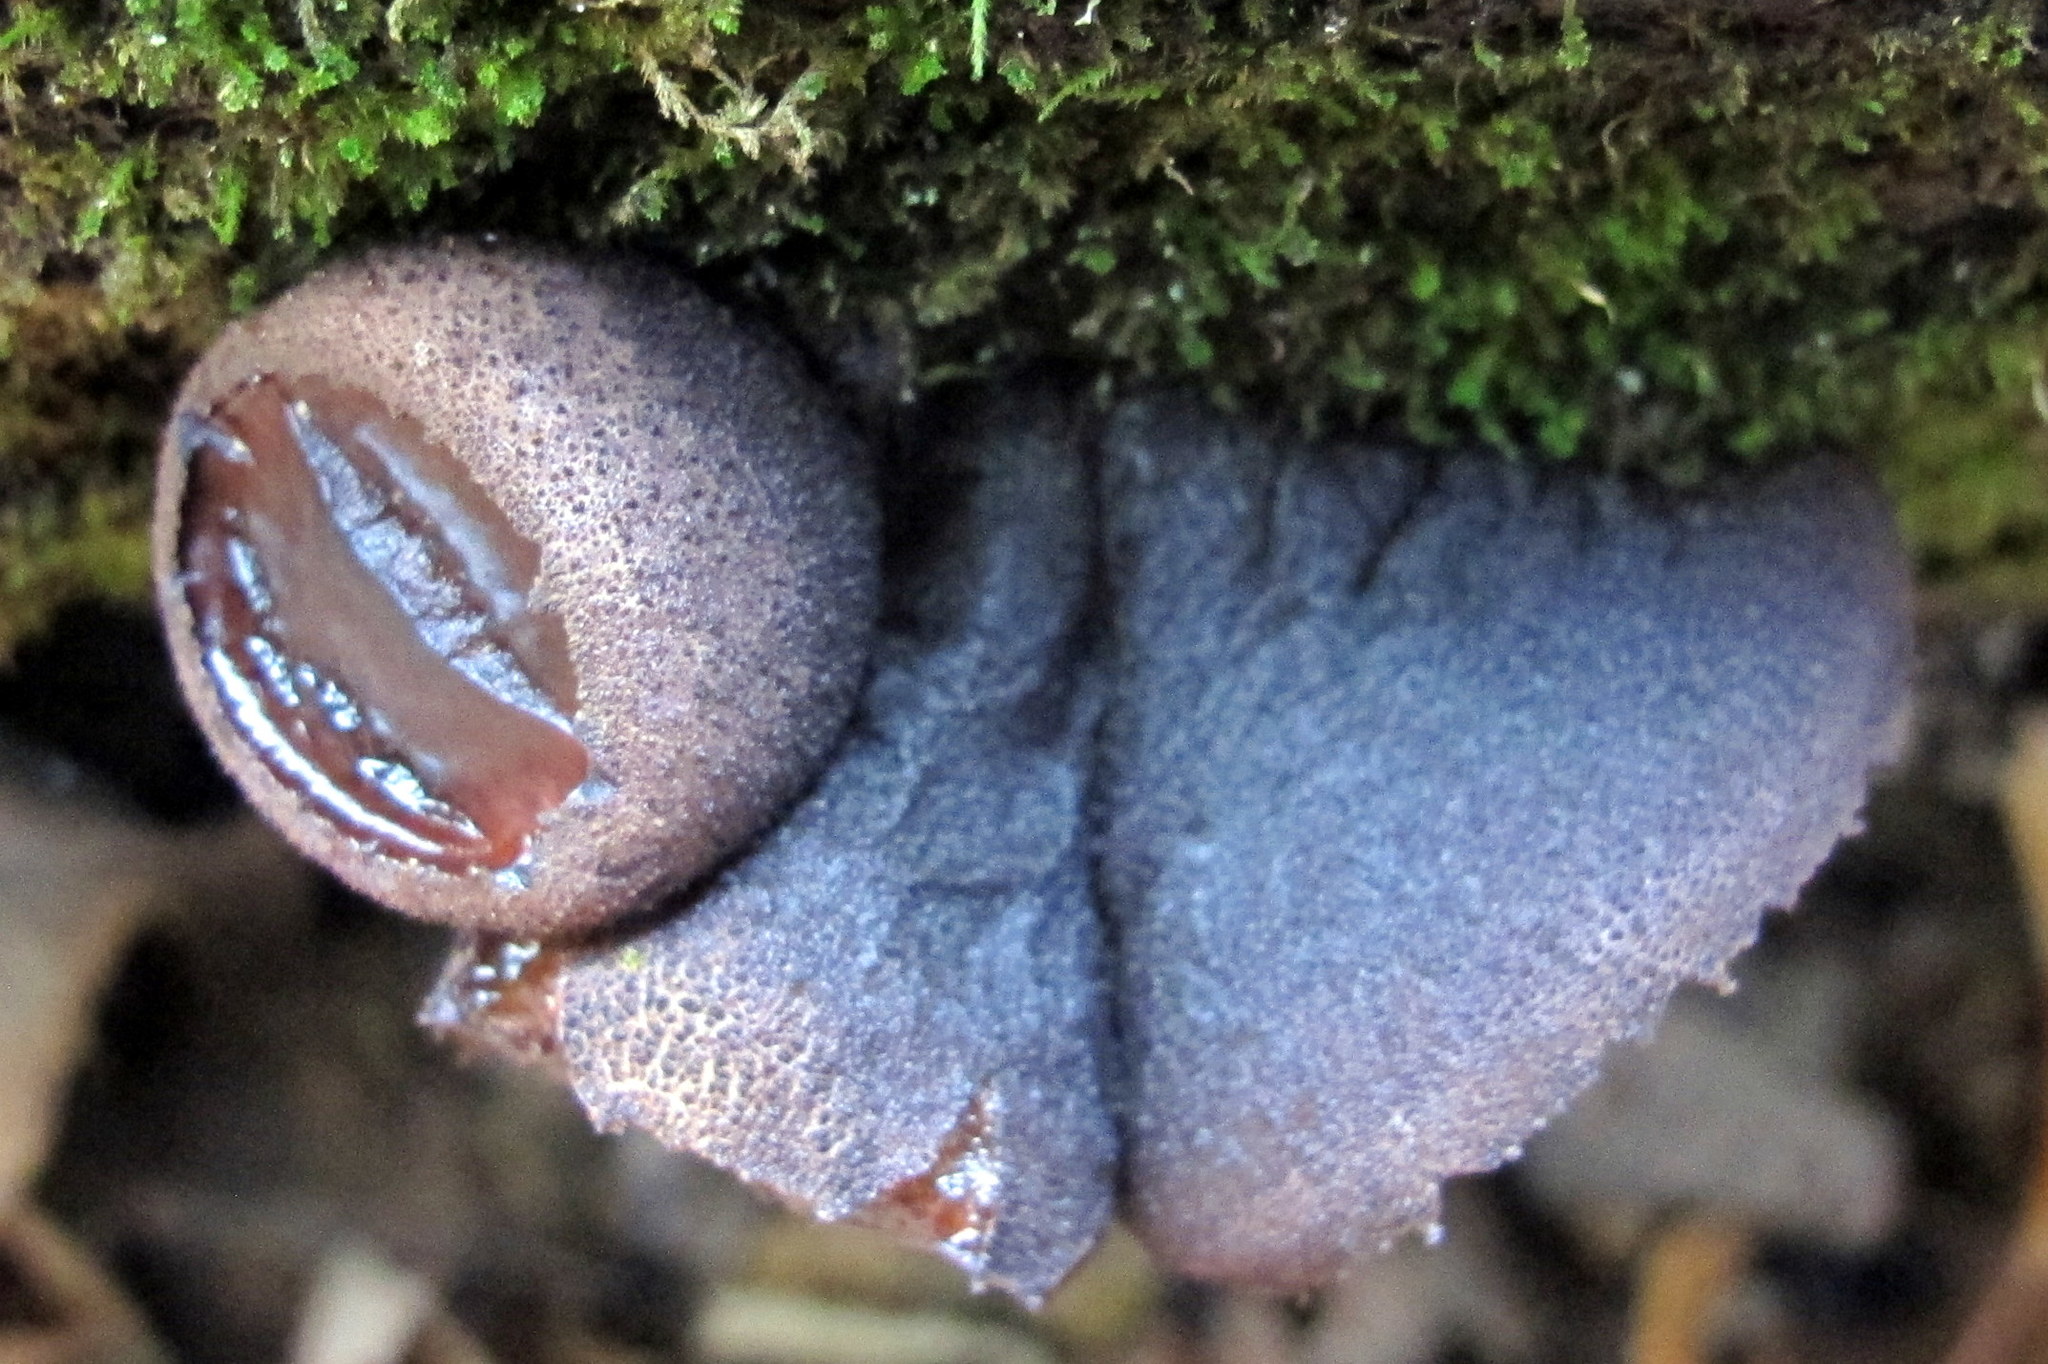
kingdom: Fungi
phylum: Ascomycota
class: Leotiomycetes
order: Phacidiales
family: Phacidiaceae
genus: Bulgaria
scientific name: Bulgaria inquinans
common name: Black bulgar
